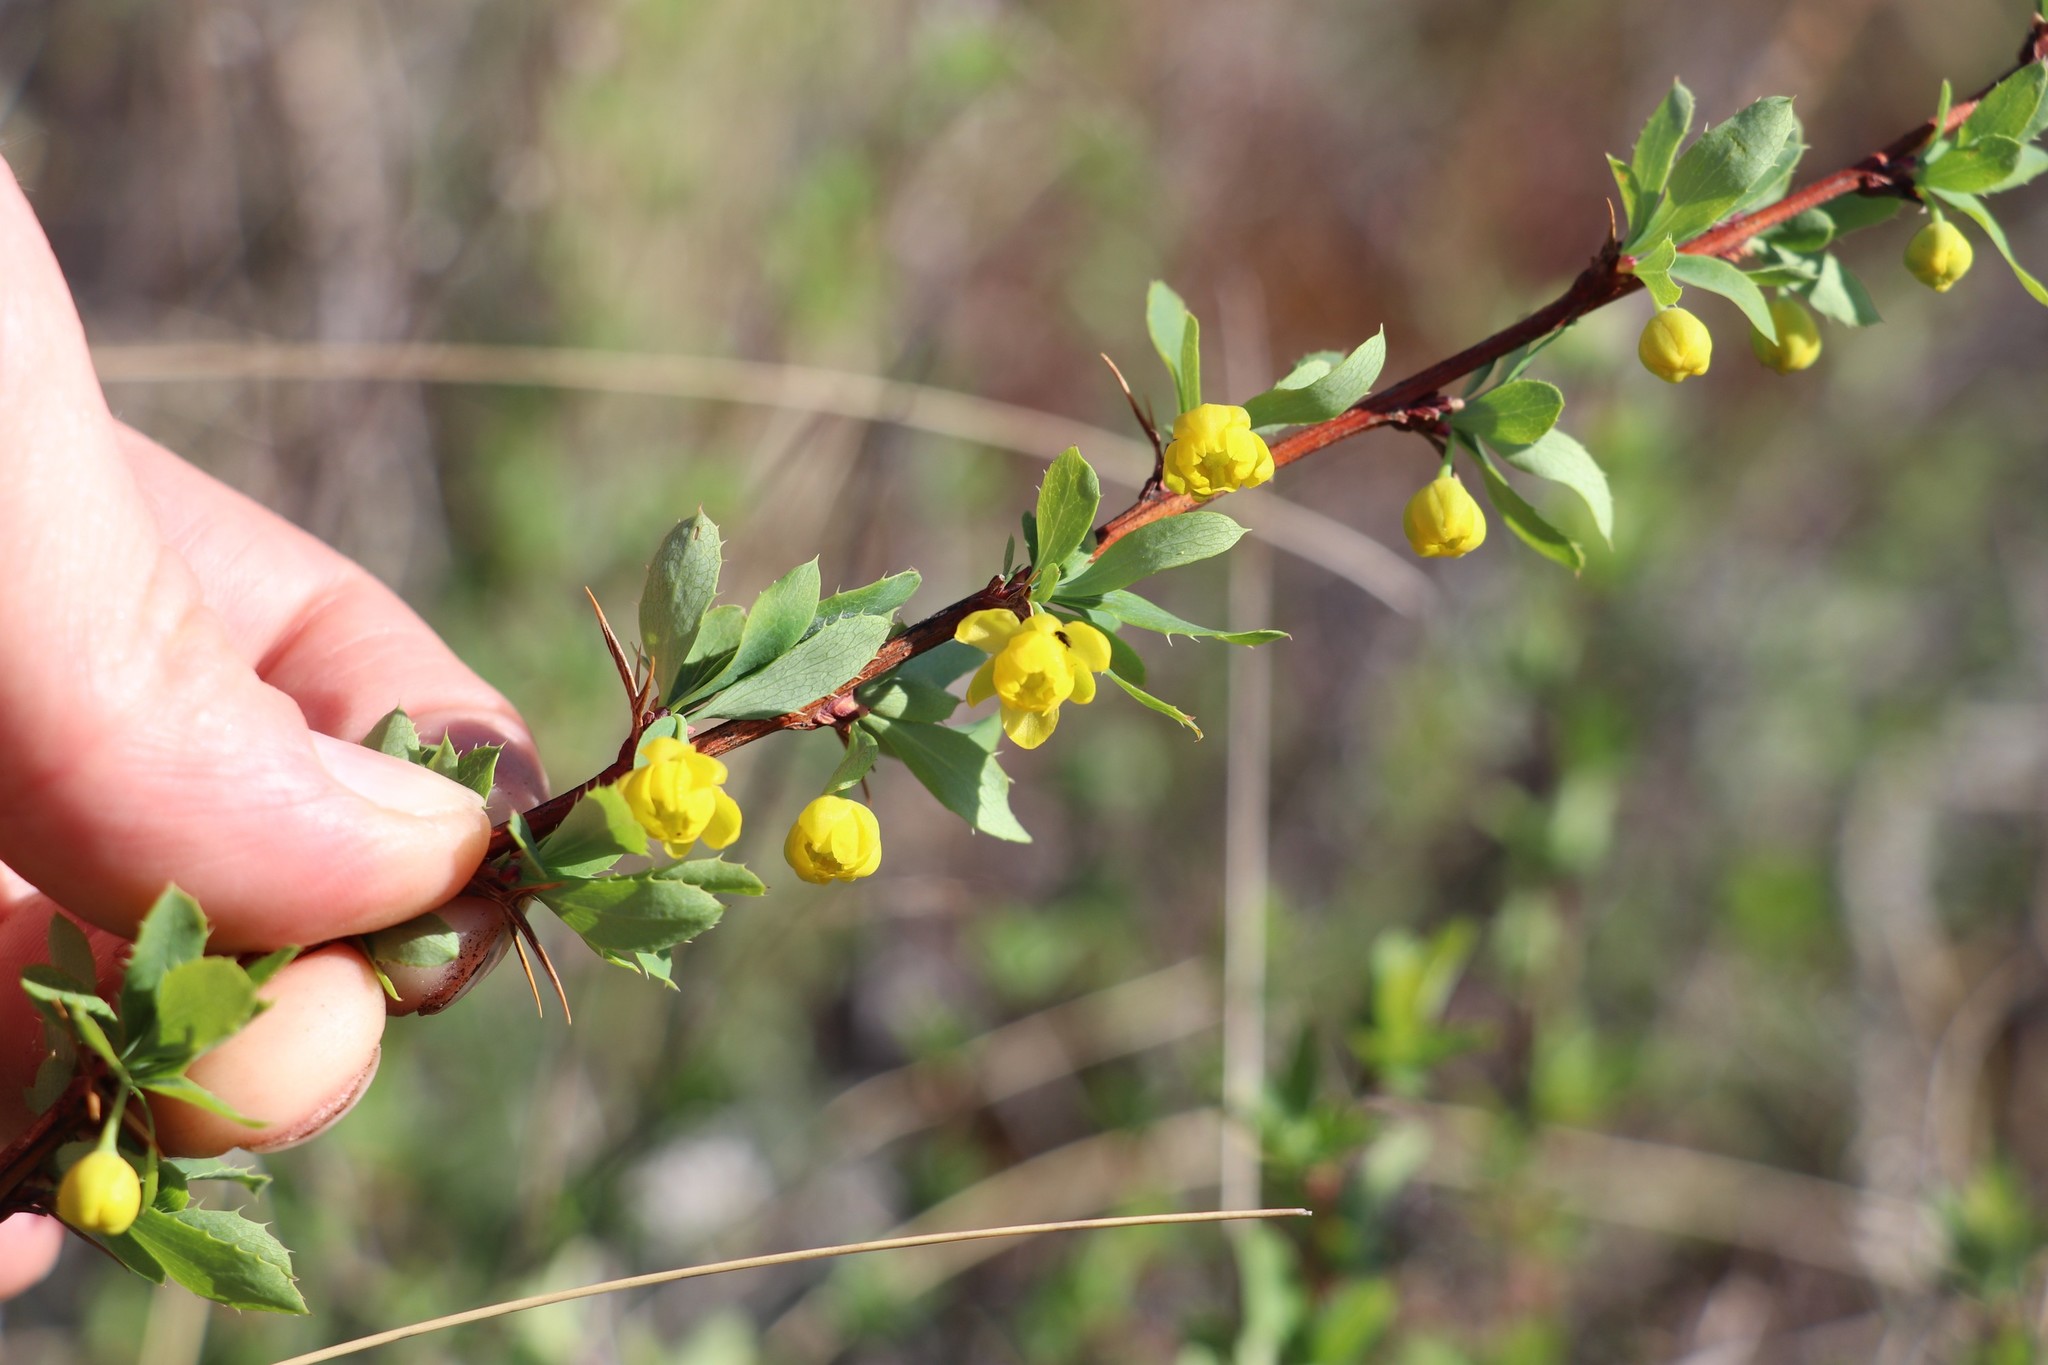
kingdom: Plantae
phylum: Tracheophyta
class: Magnoliopsida
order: Ranunculales
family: Berberidaceae
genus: Berberis
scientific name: Berberis sibirica
